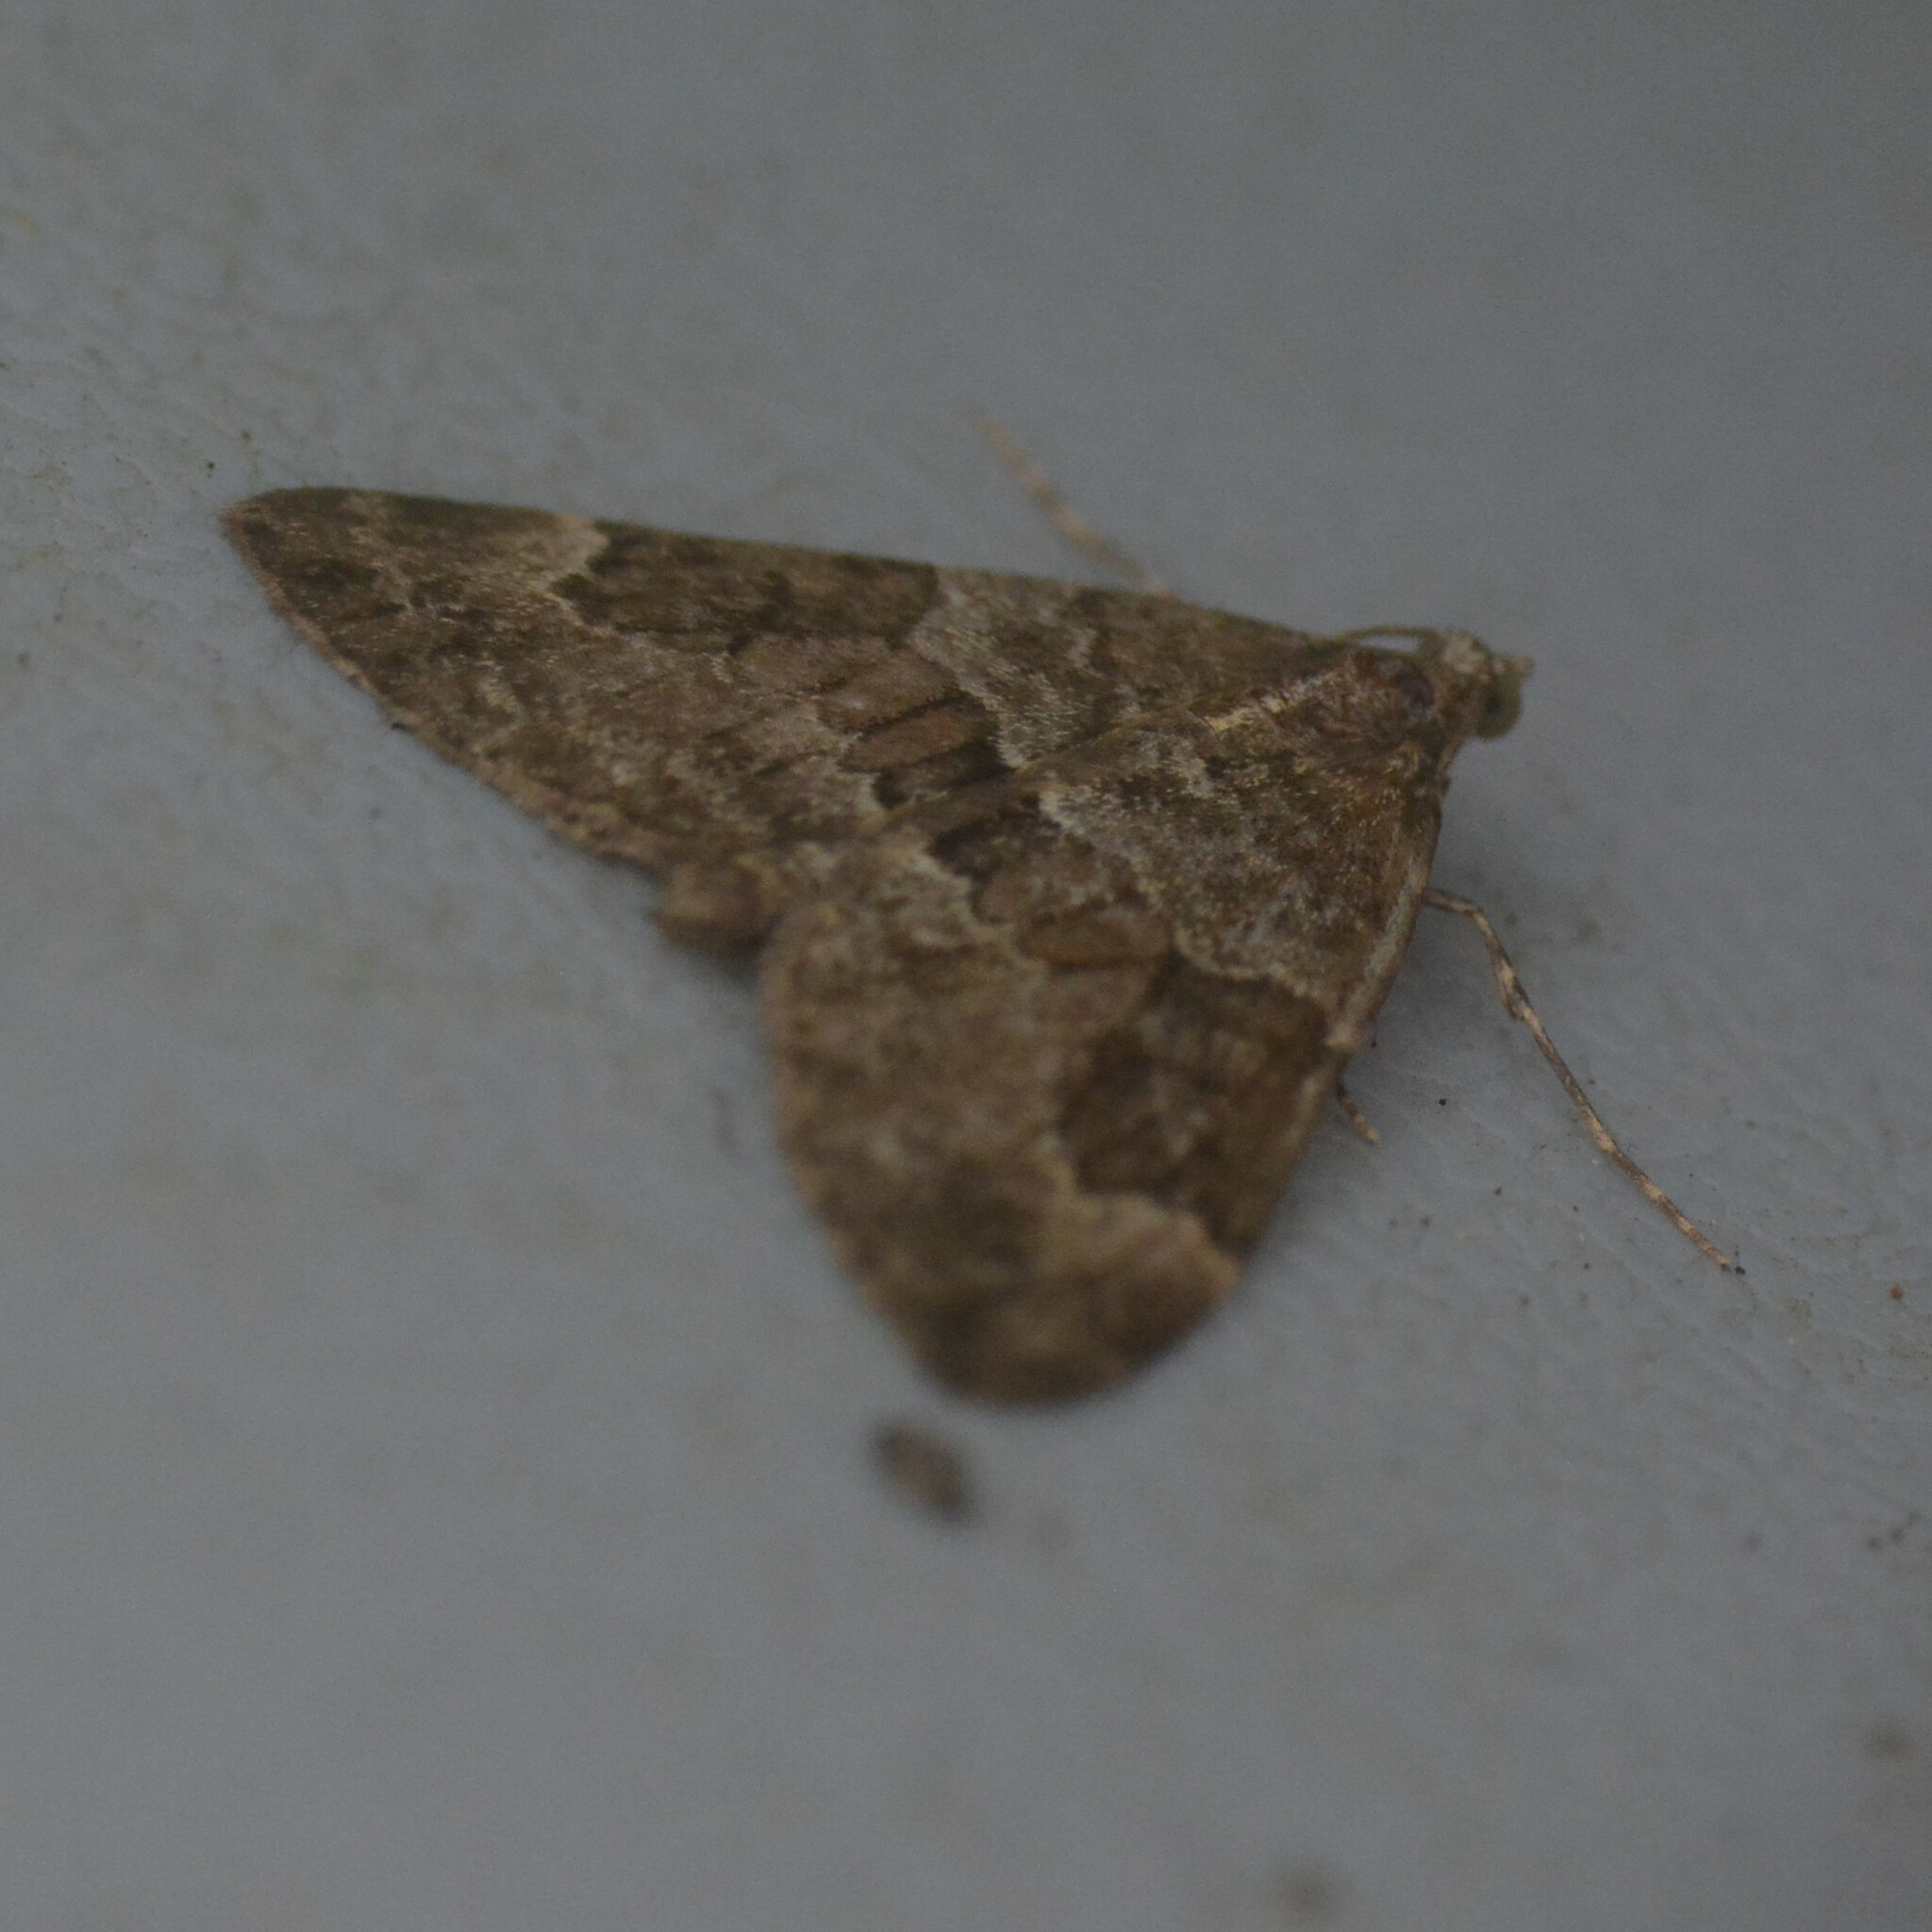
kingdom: Animalia
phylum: Arthropoda
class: Insecta
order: Lepidoptera
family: Geometridae
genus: Thera
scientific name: Thera obeliscata
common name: Grey pine carpet
